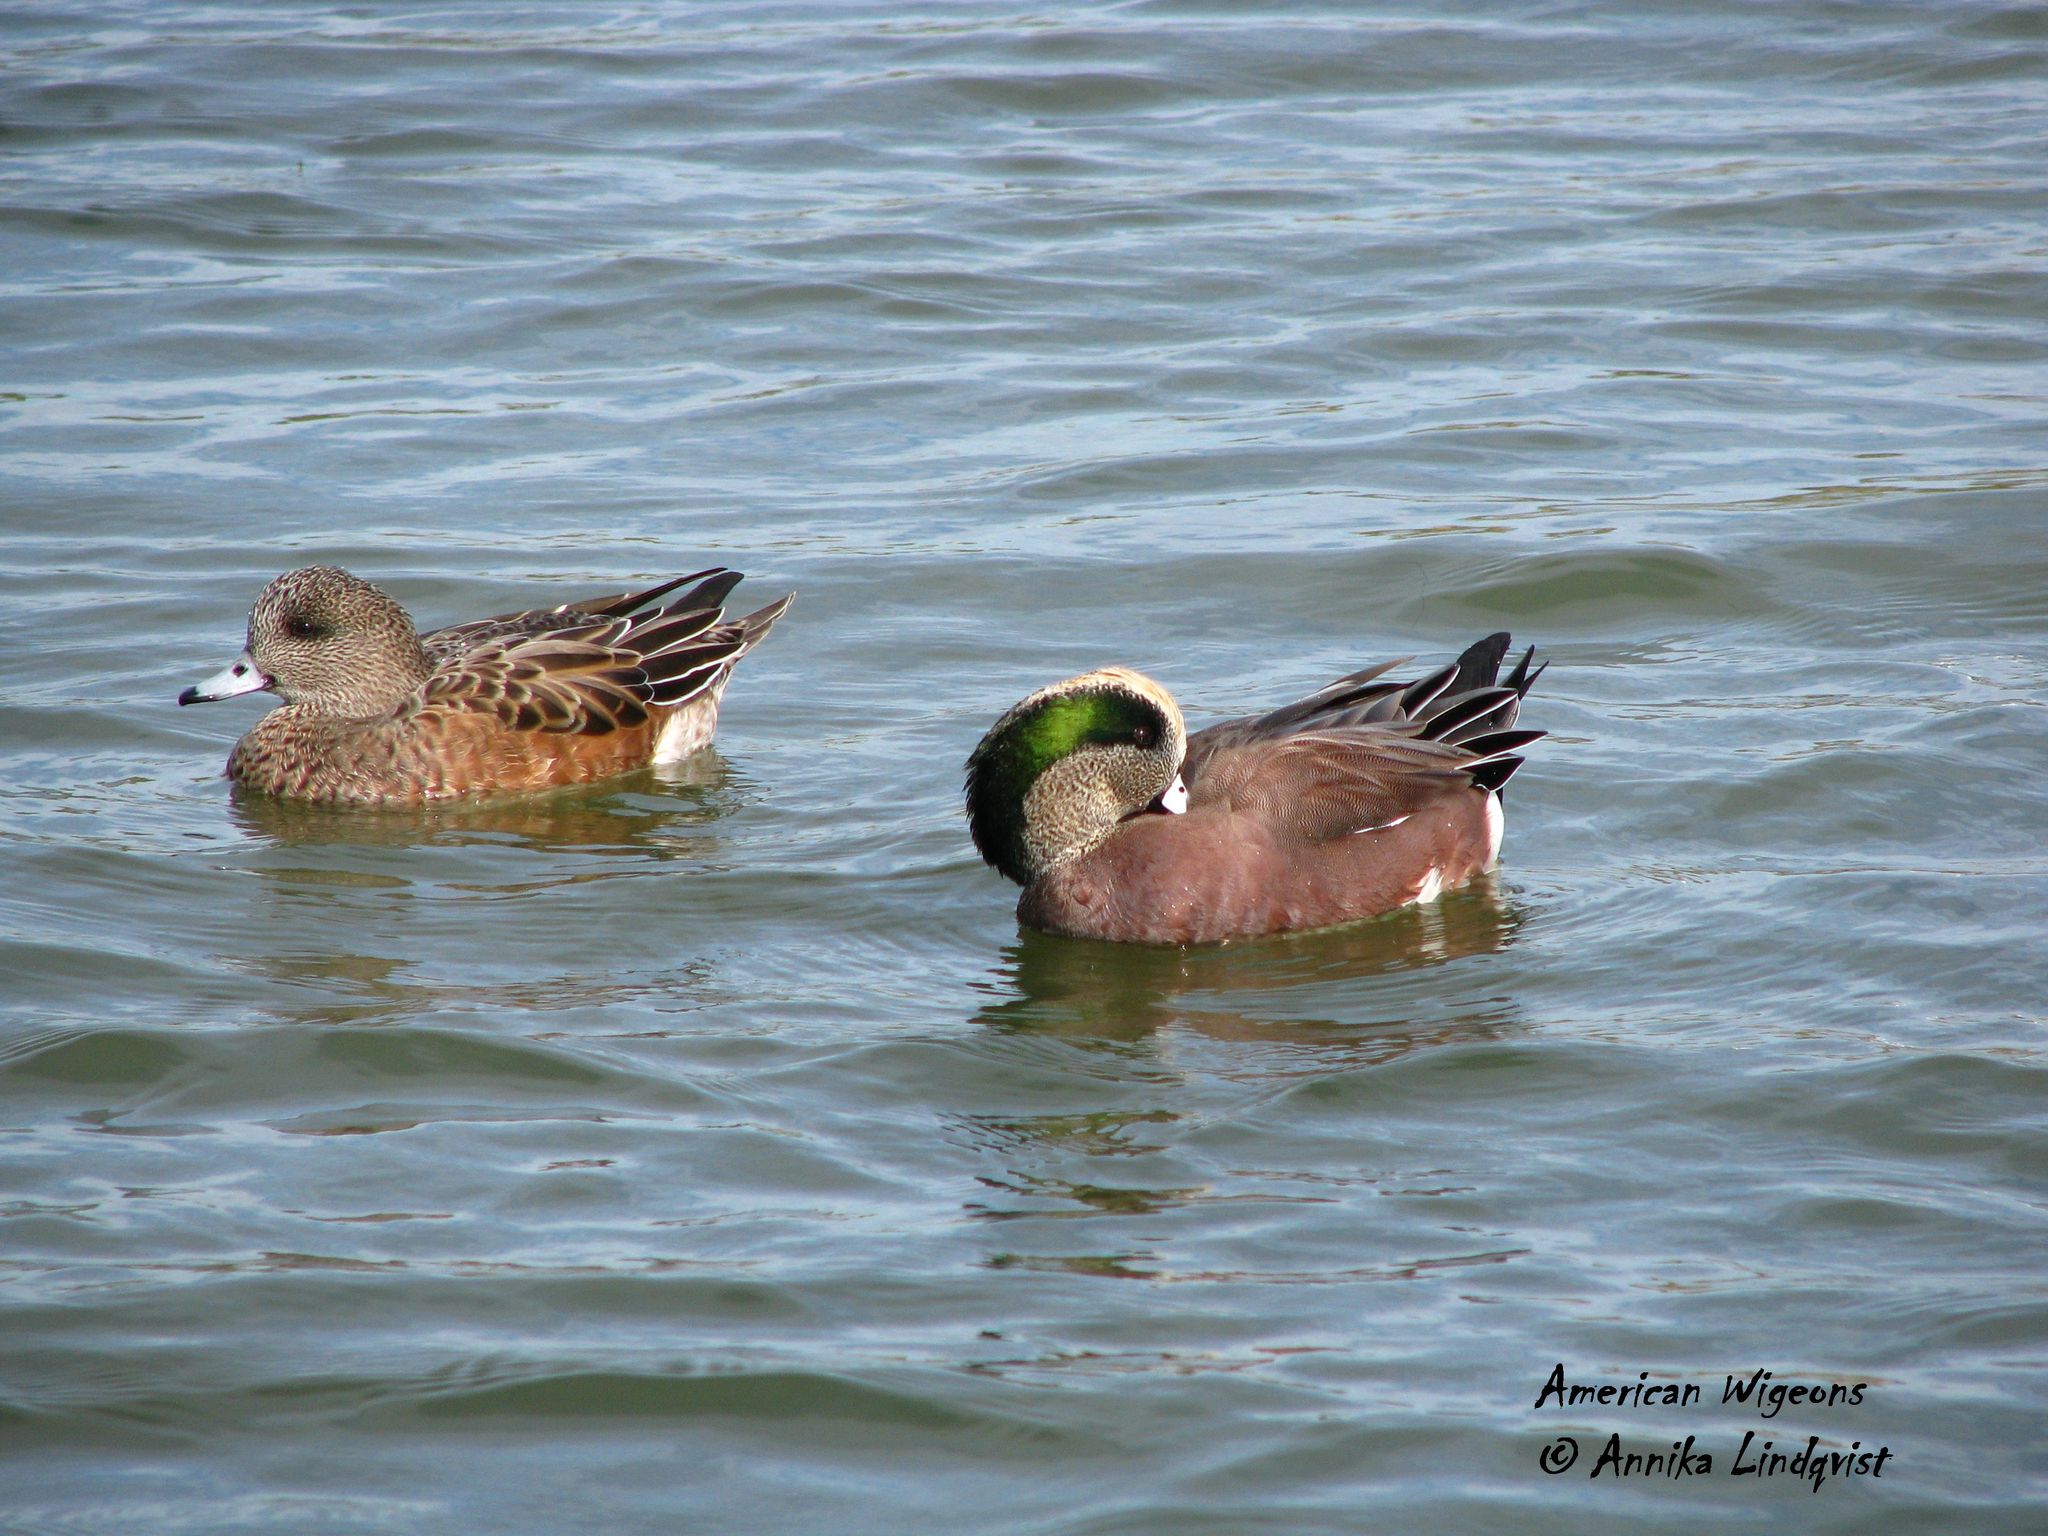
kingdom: Animalia
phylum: Chordata
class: Aves
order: Anseriformes
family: Anatidae
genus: Mareca
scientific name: Mareca americana
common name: American wigeon
